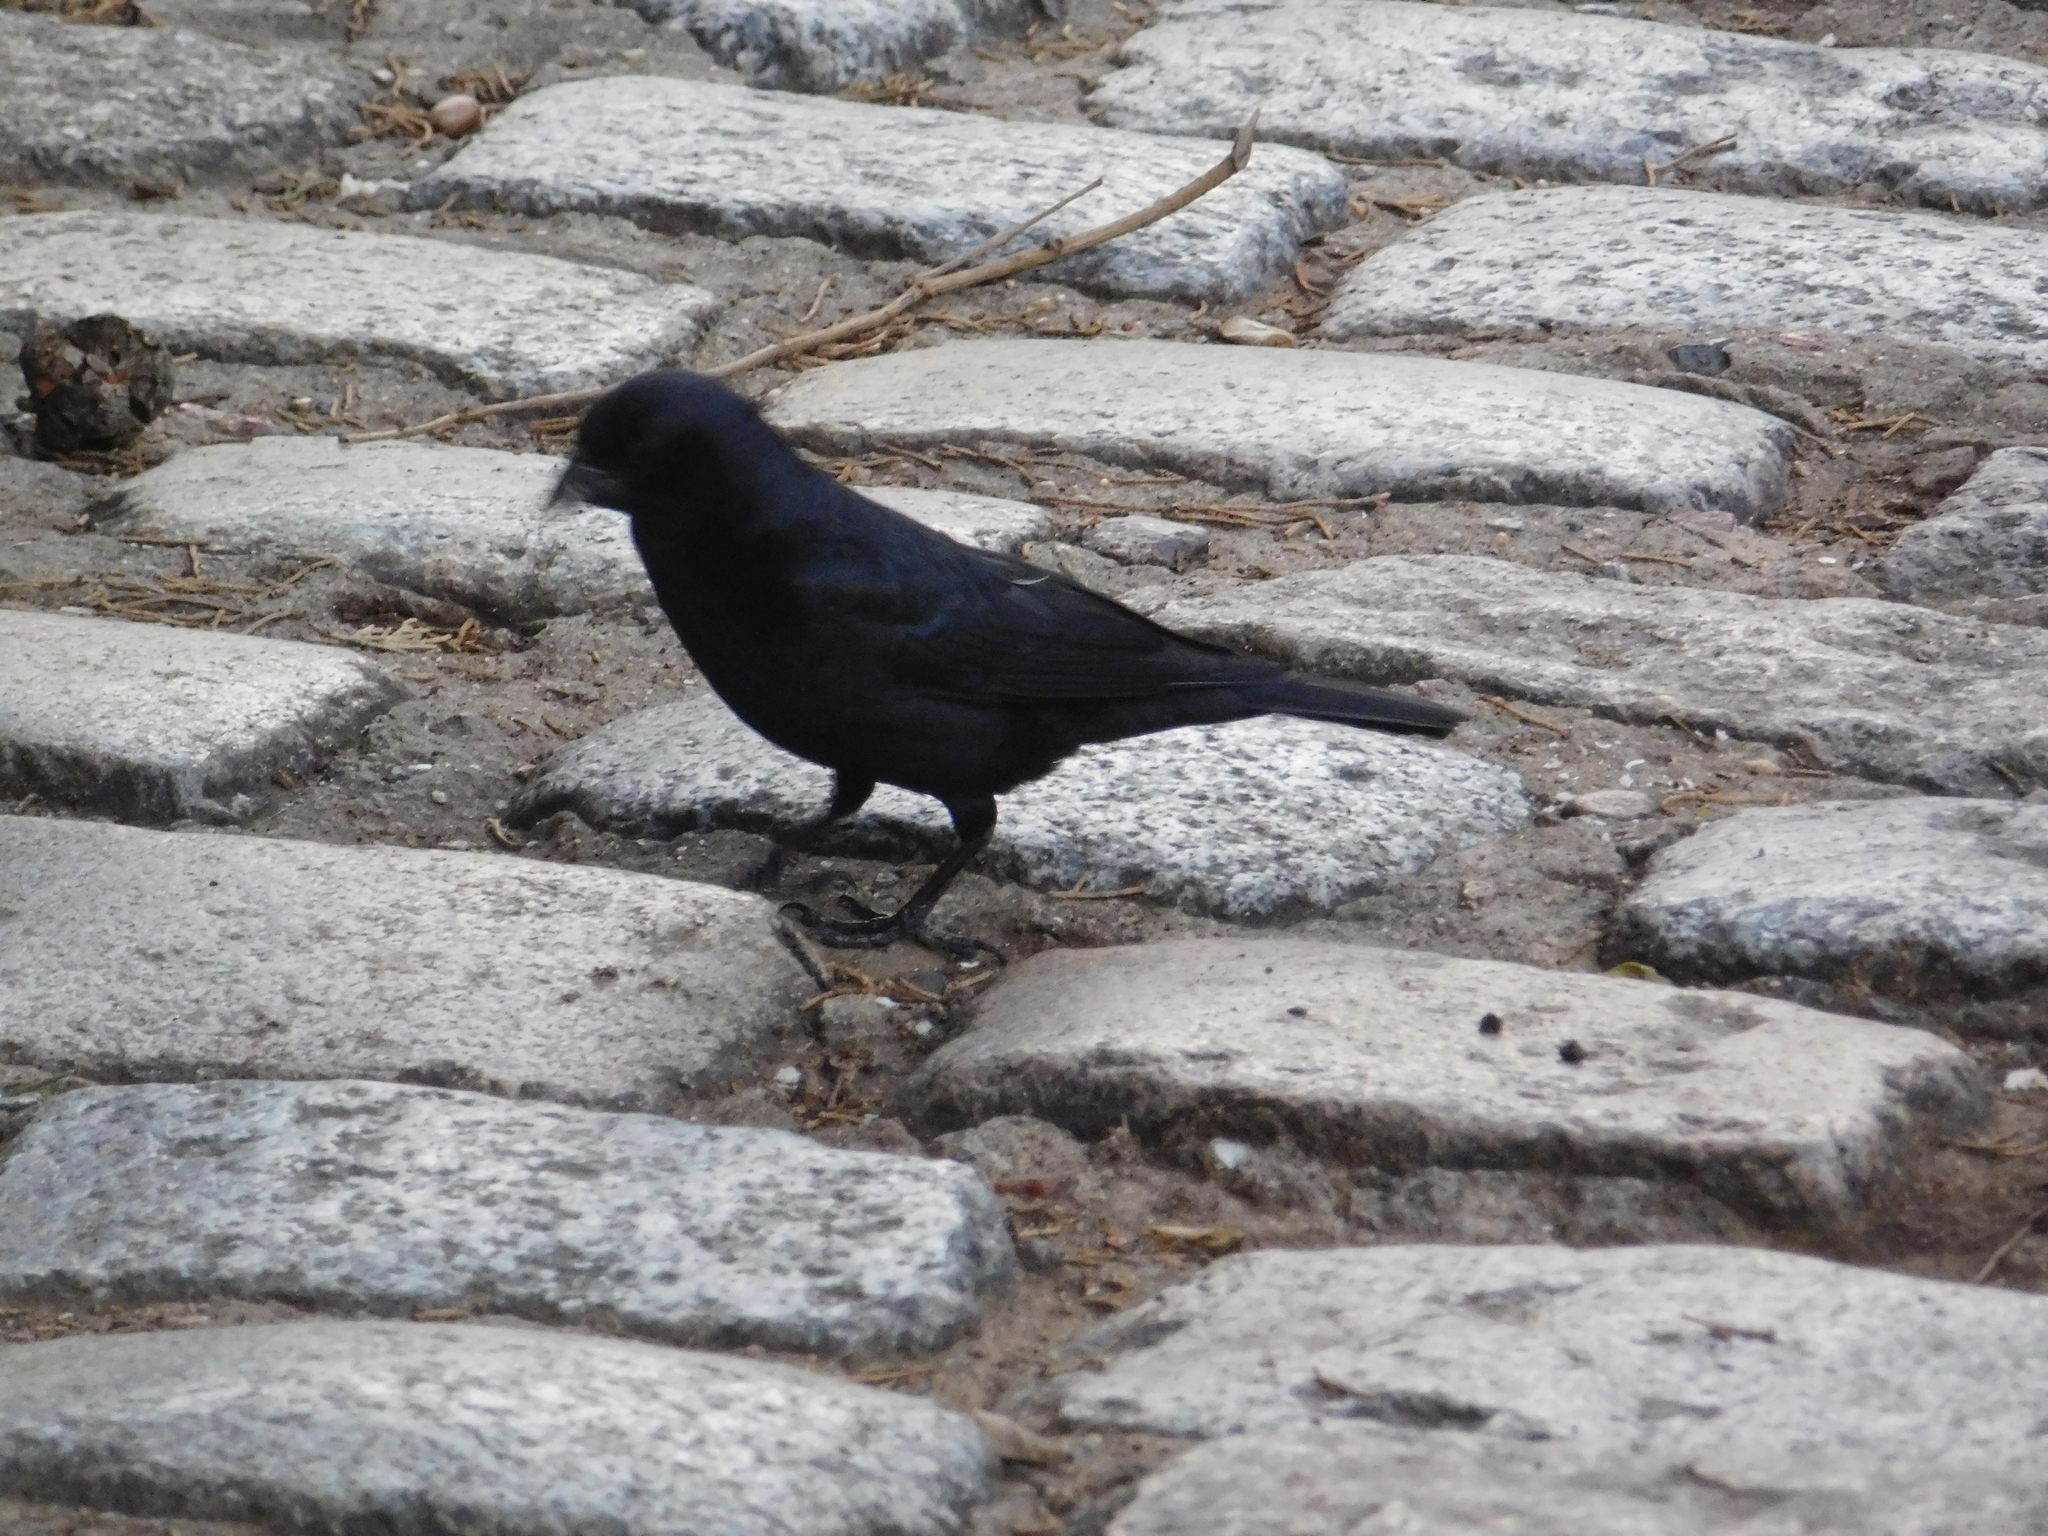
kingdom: Animalia
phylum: Chordata
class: Aves
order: Passeriformes
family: Icteridae
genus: Molothrus
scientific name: Molothrus bonariensis
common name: Shiny cowbird
